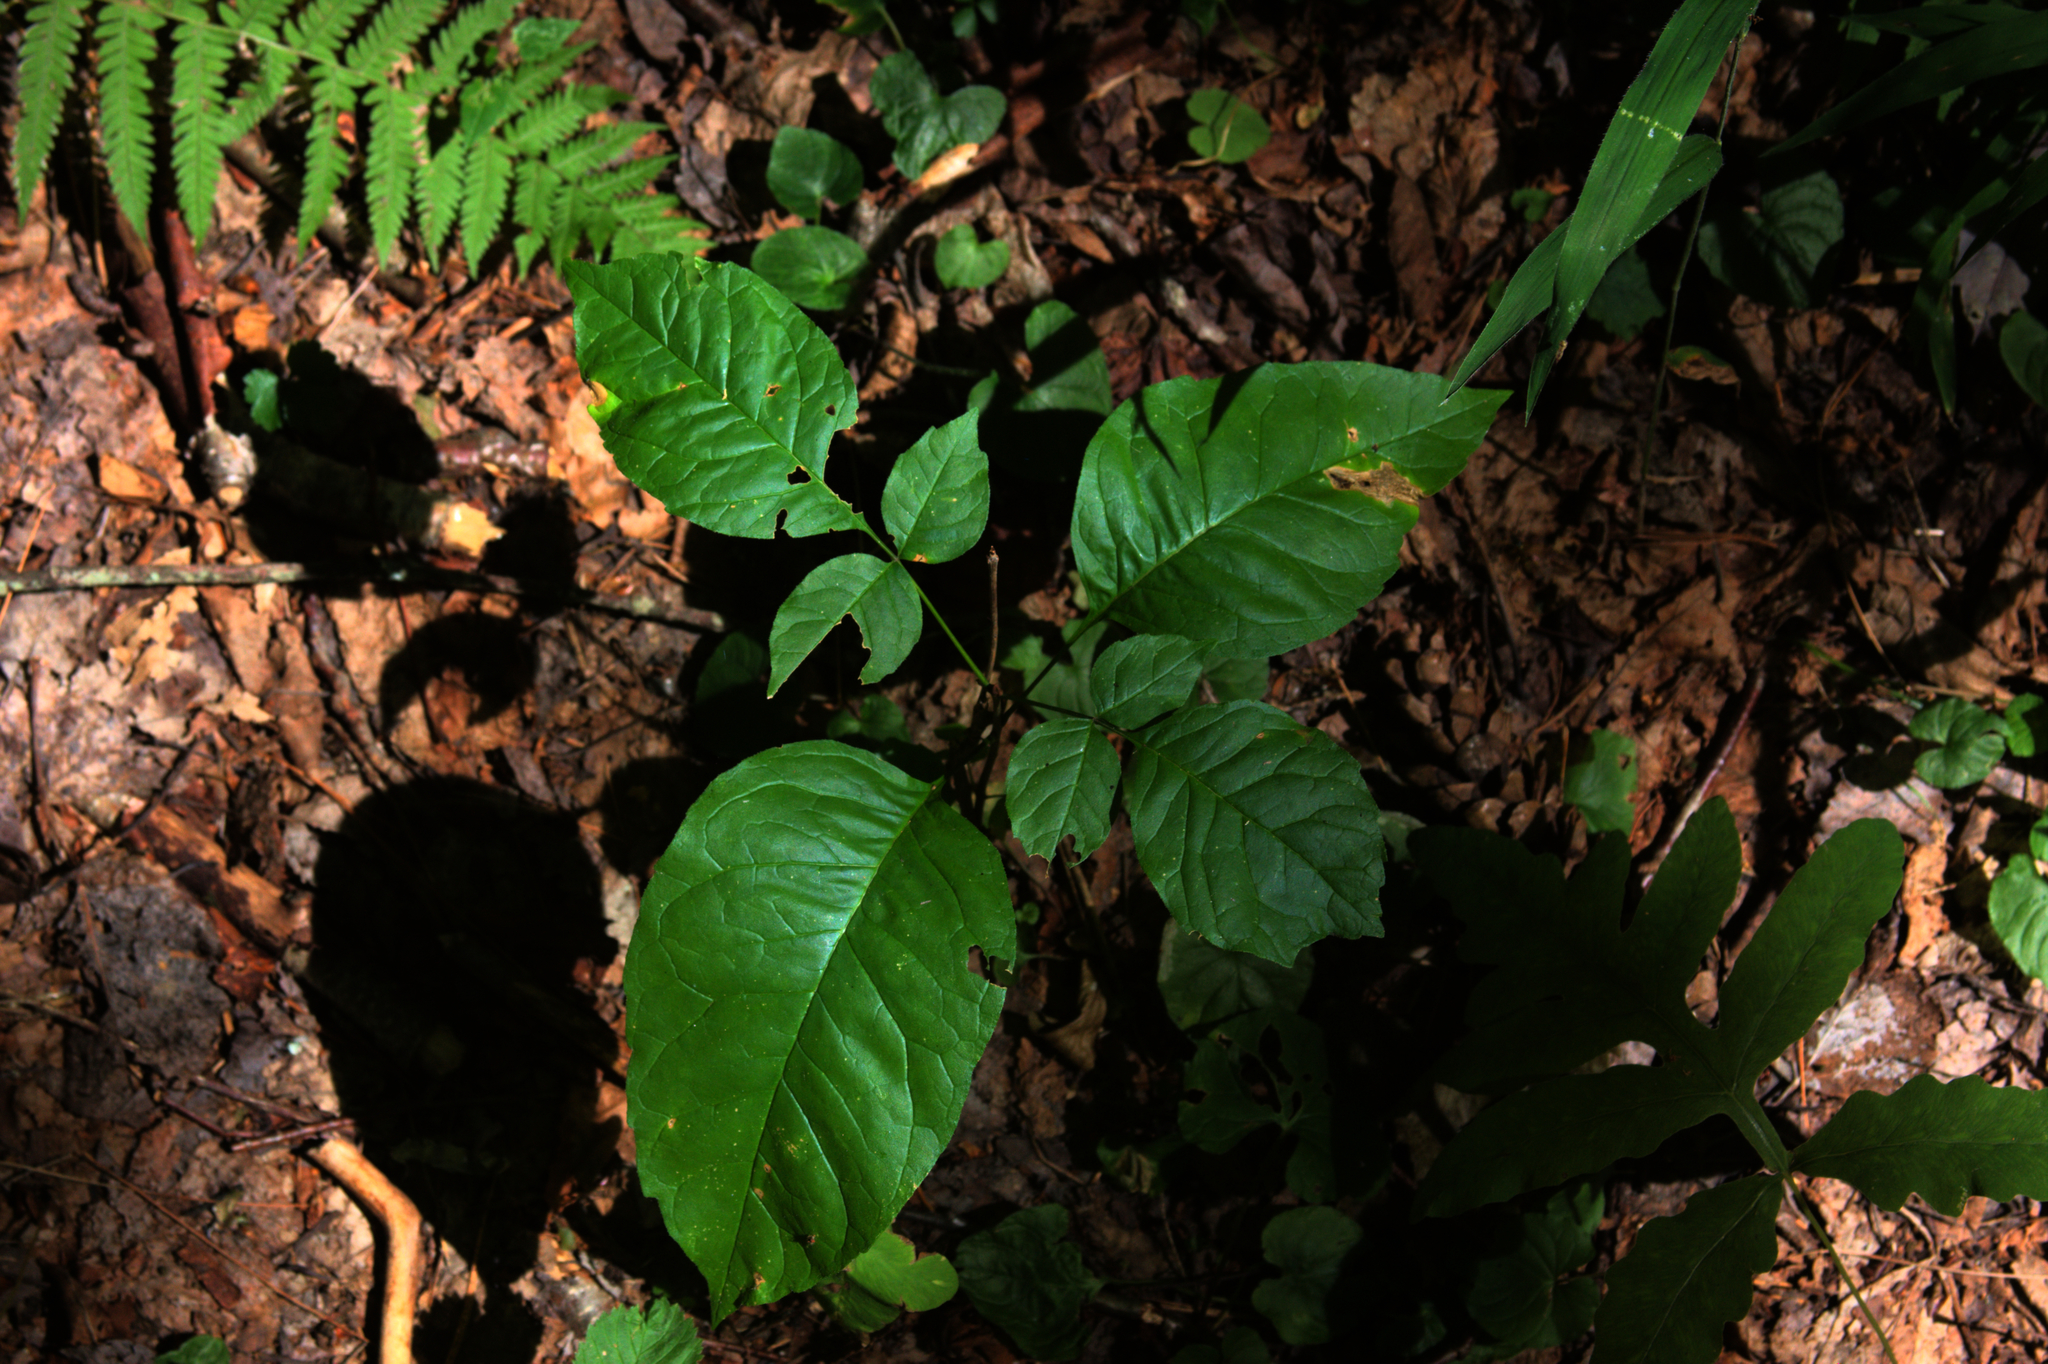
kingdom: Plantae
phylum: Tracheophyta
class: Polypodiopsida
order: Polypodiales
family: Onocleaceae
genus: Onoclea
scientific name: Onoclea sensibilis
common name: Sensitive fern
